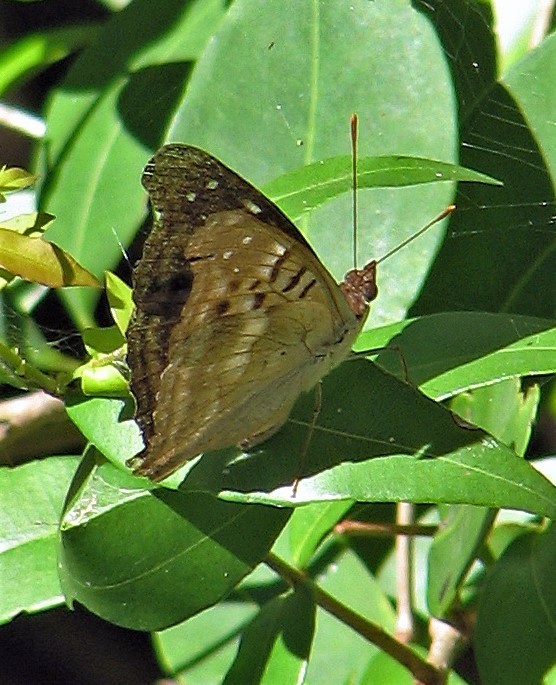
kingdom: Animalia
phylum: Arthropoda
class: Insecta
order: Lepidoptera
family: Nymphalidae
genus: Doxocopa
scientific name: Doxocopa laurentia
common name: Turquoise emperor
